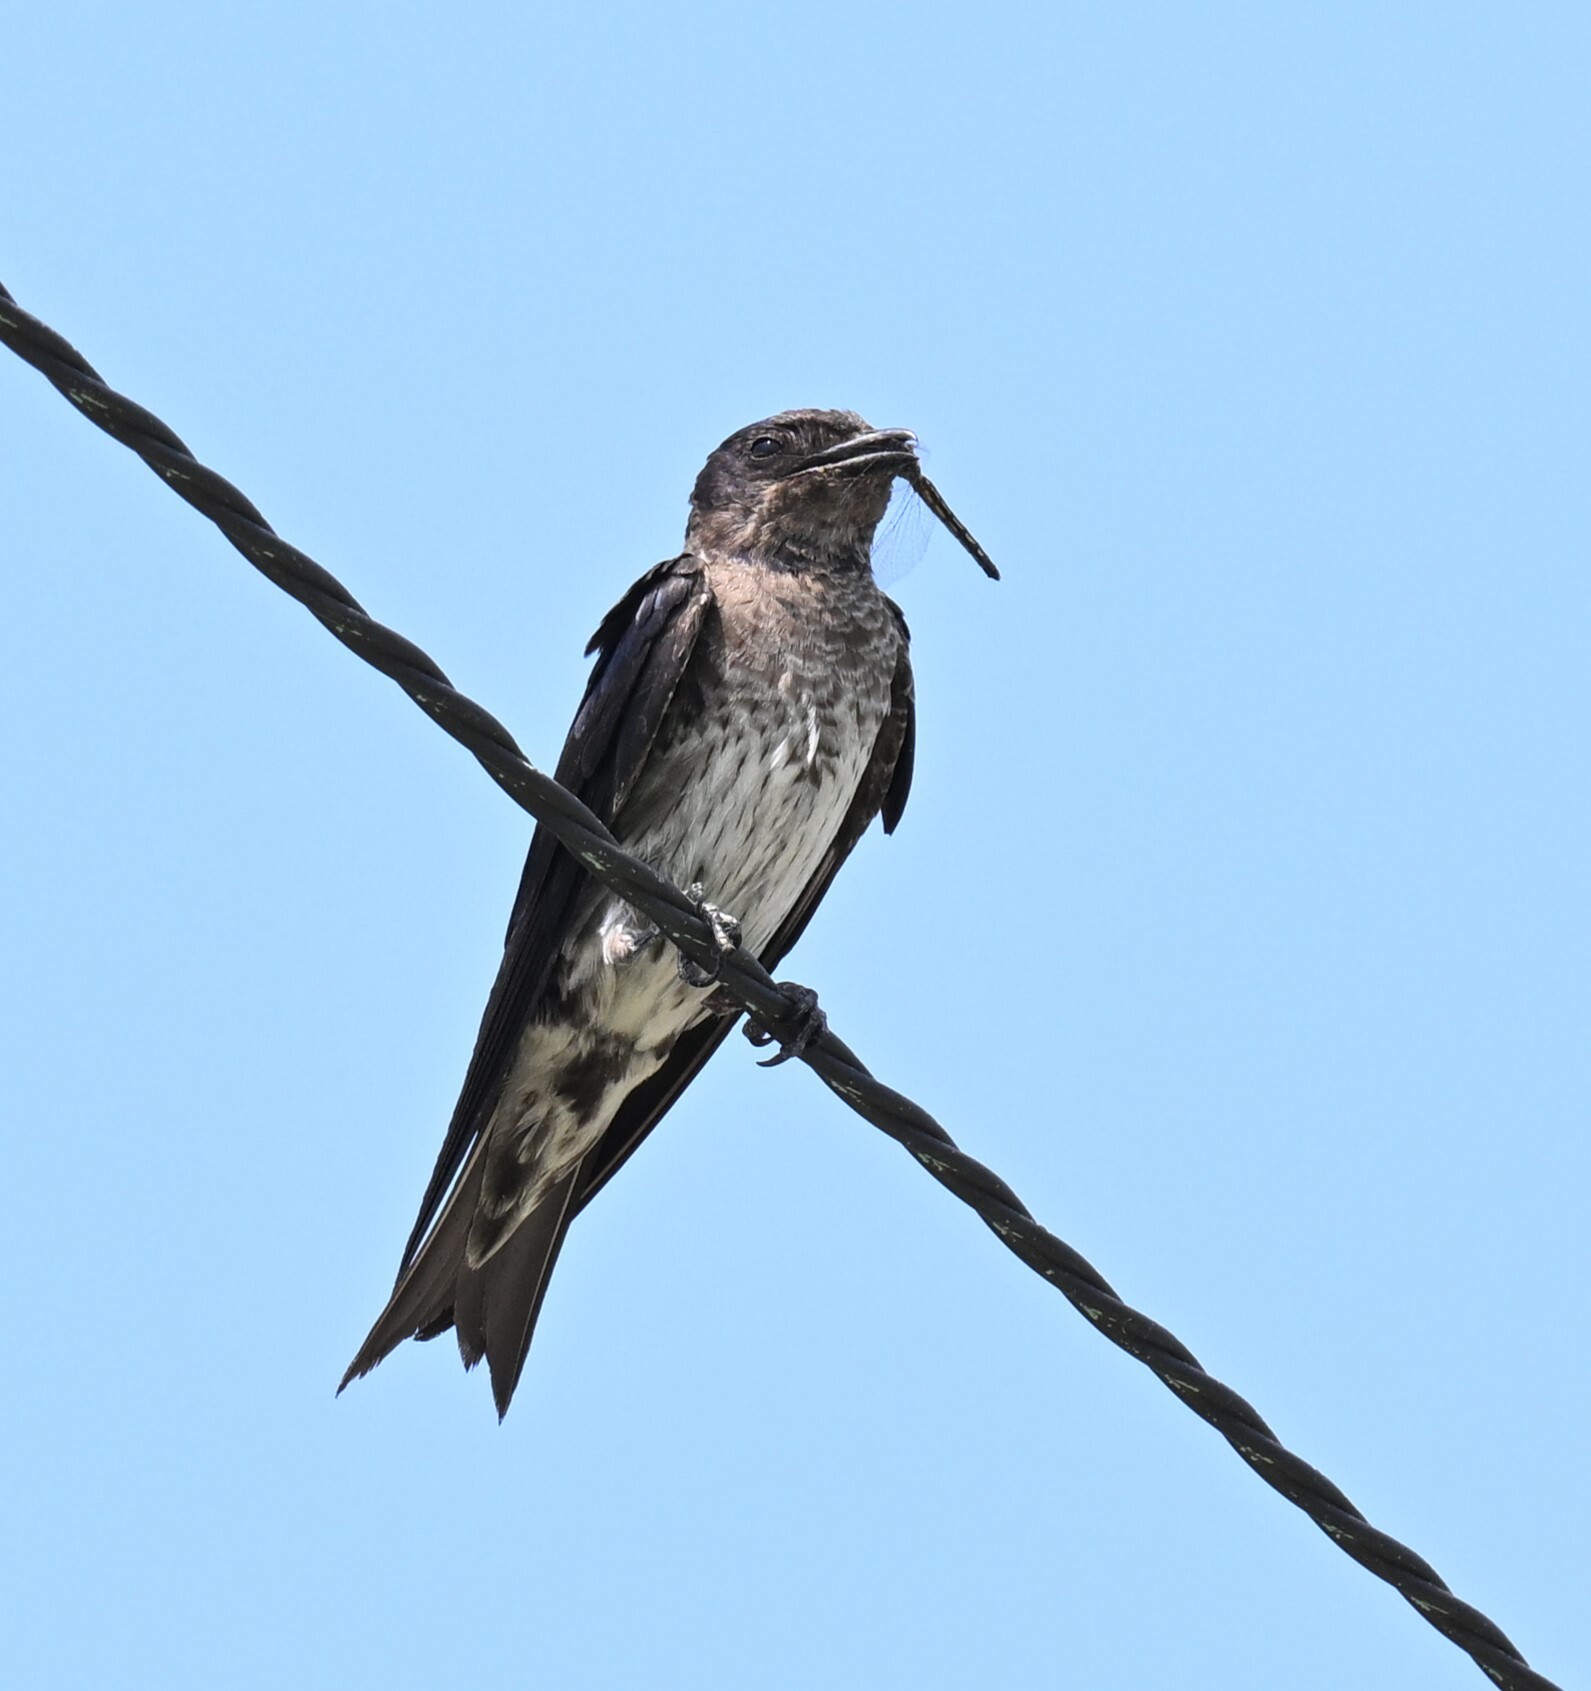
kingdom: Animalia
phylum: Chordata
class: Aves
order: Passeriformes
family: Hirundinidae
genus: Progne
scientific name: Progne subis
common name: Purple martin
